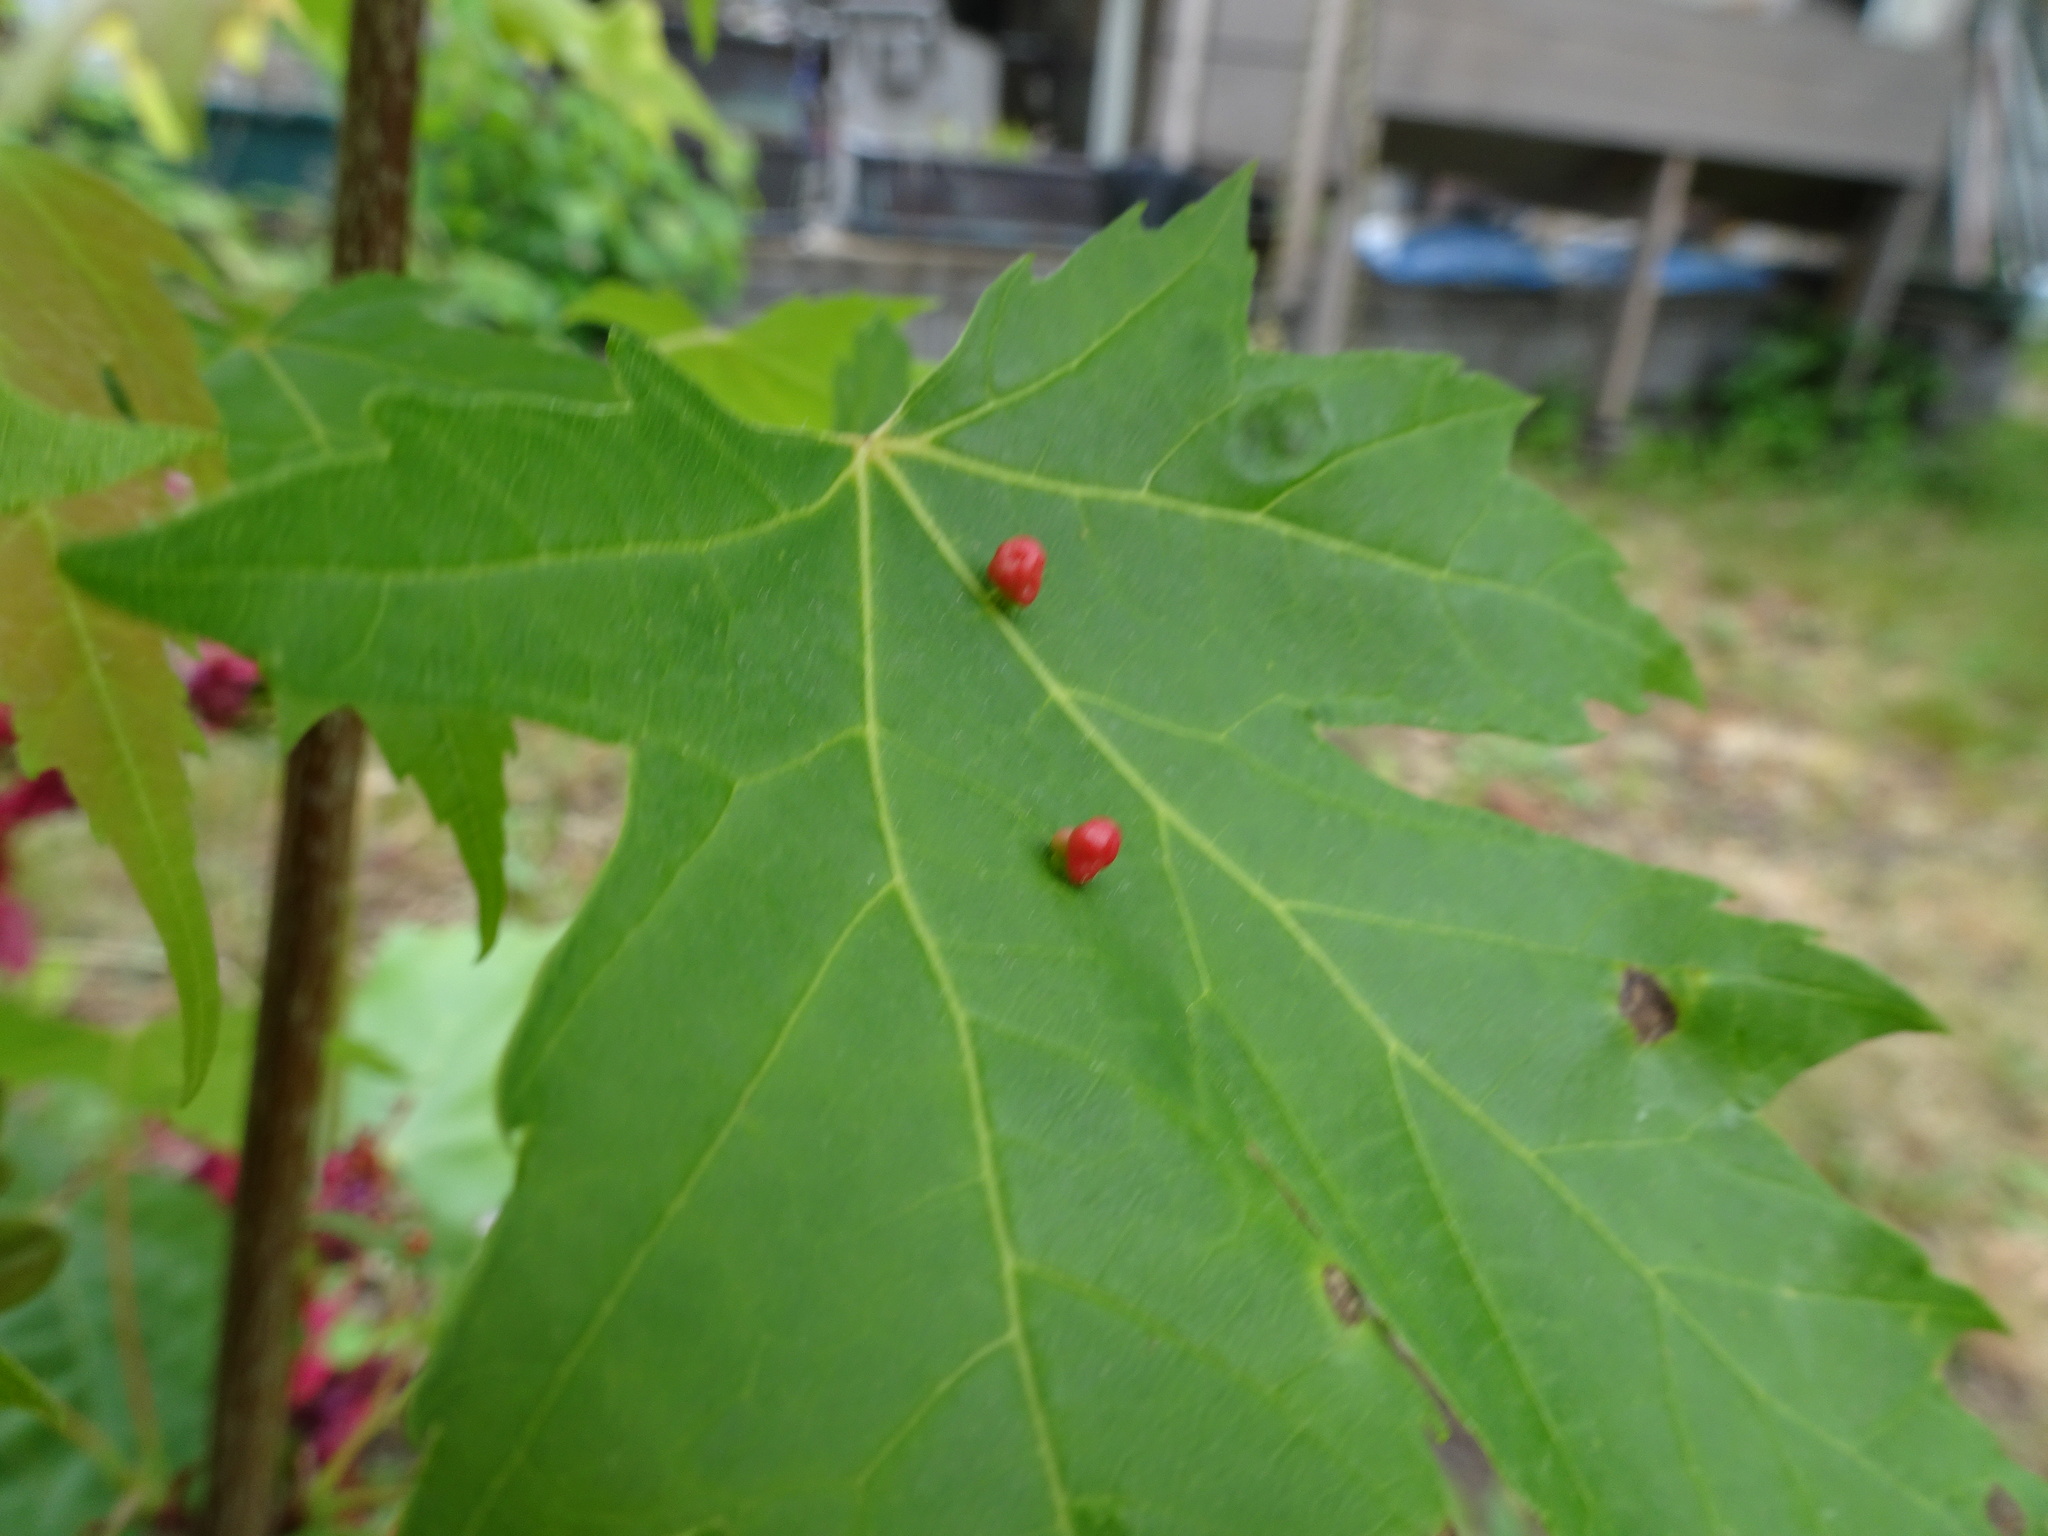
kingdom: Animalia
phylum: Arthropoda
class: Arachnida
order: Trombidiformes
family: Eriophyidae
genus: Vasates
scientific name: Vasates quadripedes
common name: Maple bladder gall mite
